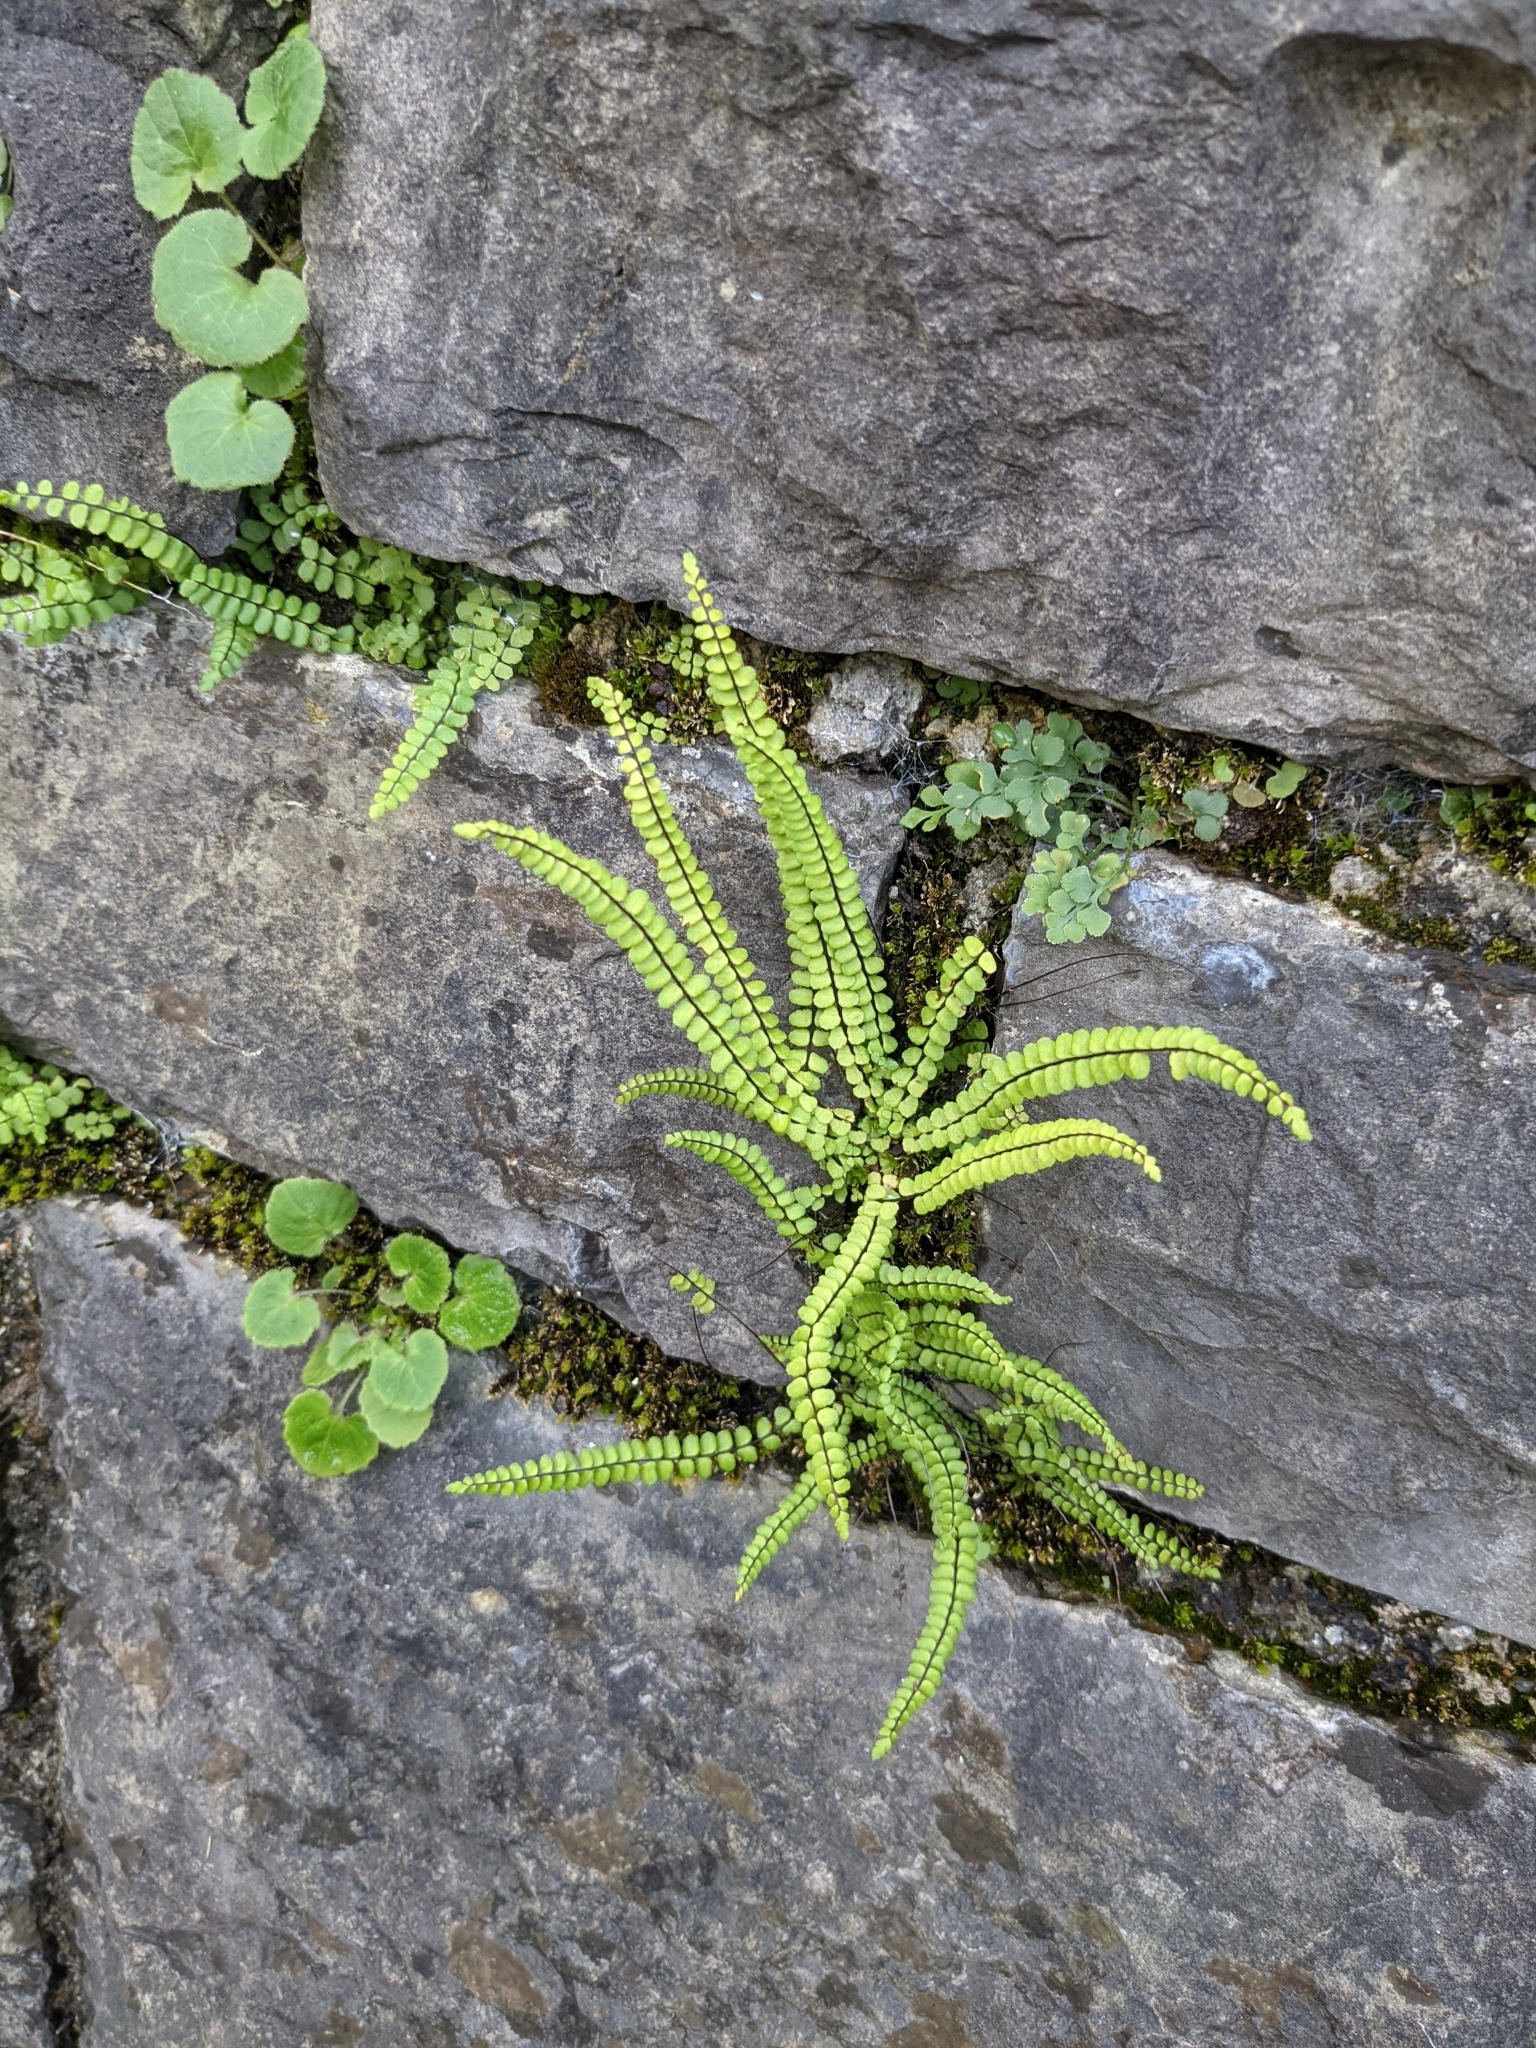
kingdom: Plantae
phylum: Tracheophyta
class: Polypodiopsida
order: Polypodiales
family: Aspleniaceae
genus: Asplenium
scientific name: Asplenium trichomanes
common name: Maidenhair spleenwort
